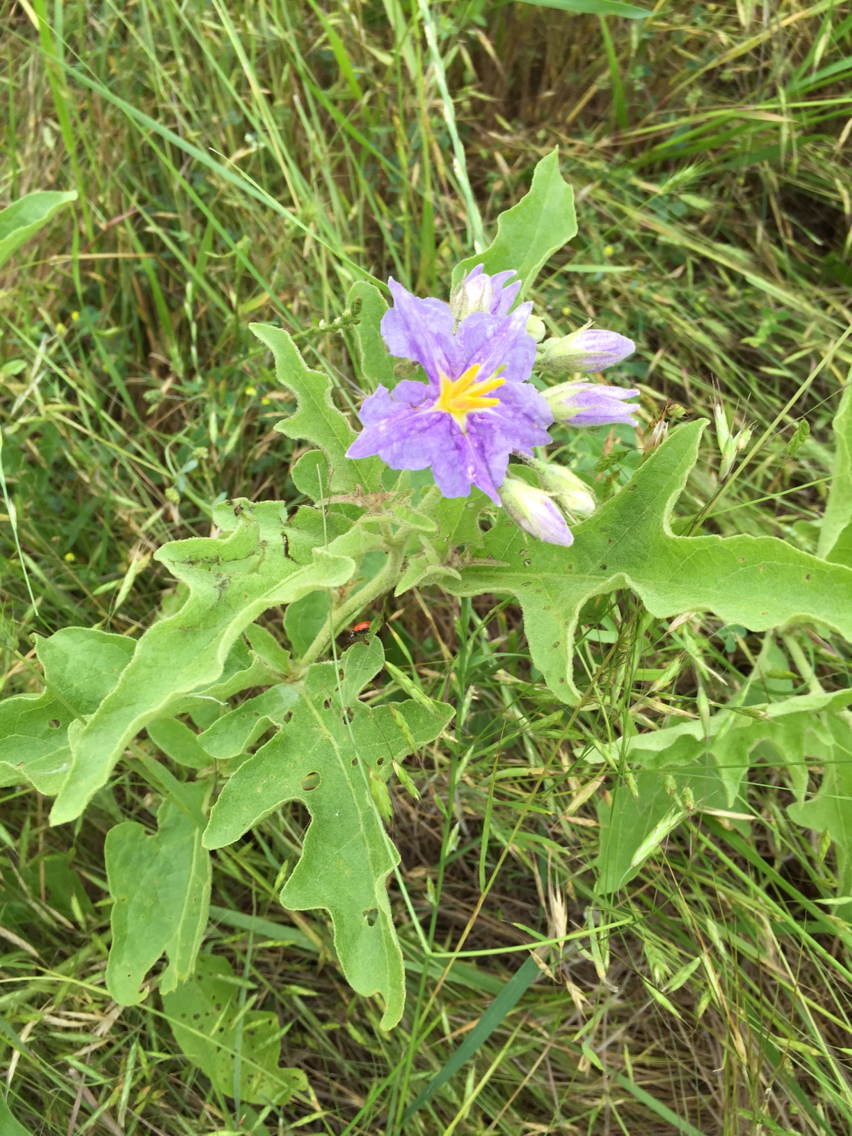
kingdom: Plantae
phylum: Tracheophyta
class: Magnoliopsida
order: Solanales
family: Solanaceae
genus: Solanum
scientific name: Solanum dimidiatum
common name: Carolina horse-nettle
